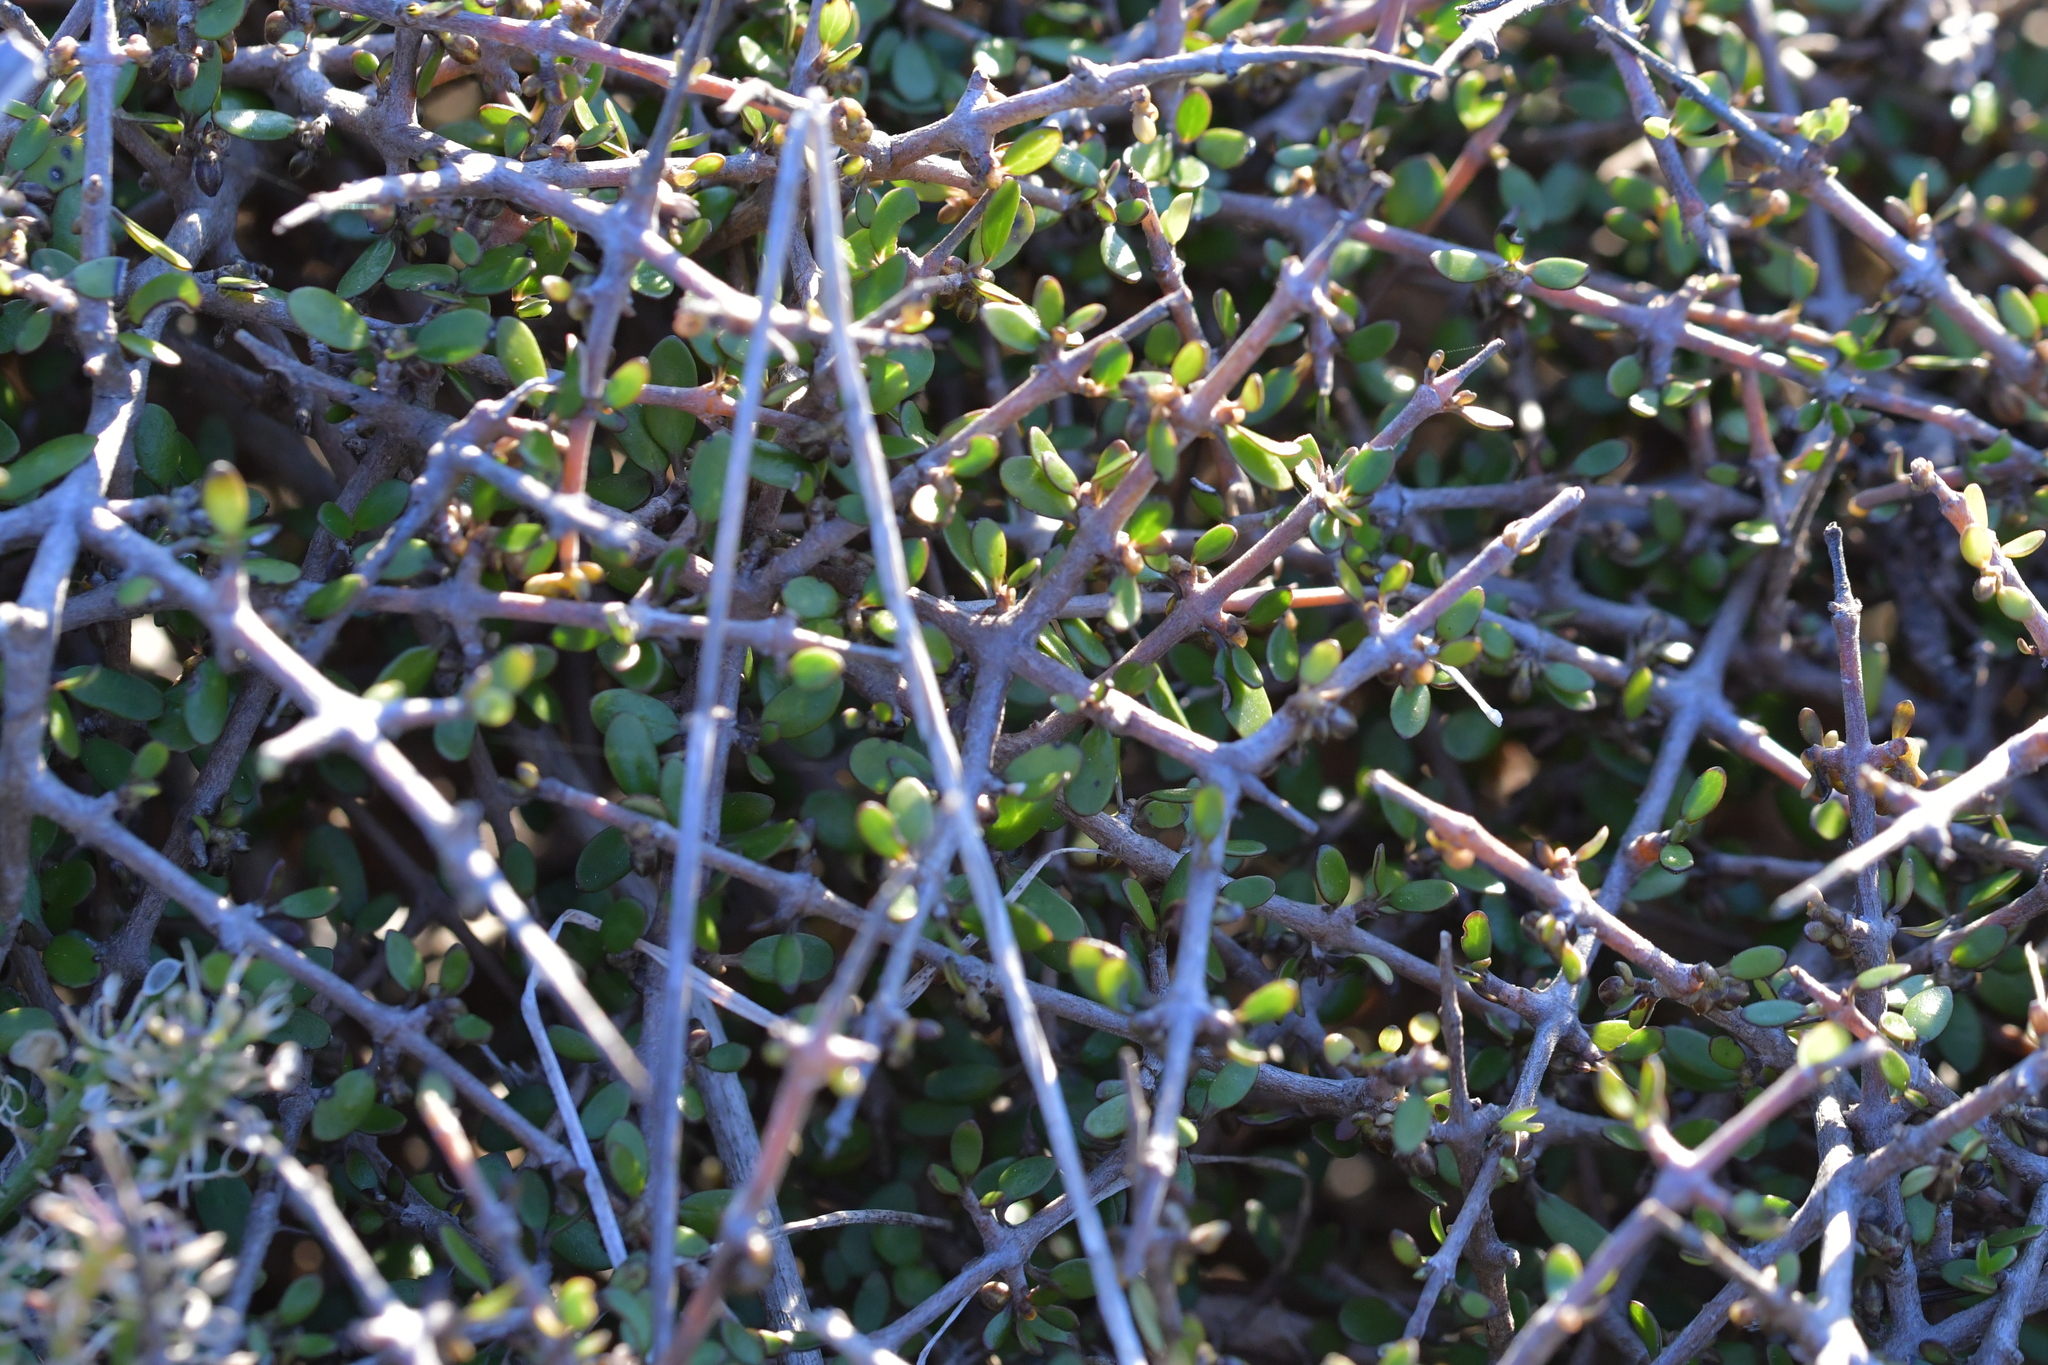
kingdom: Plantae
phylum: Tracheophyta
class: Magnoliopsida
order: Gentianales
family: Rubiaceae
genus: Coprosma
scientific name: Coprosma propinqua
